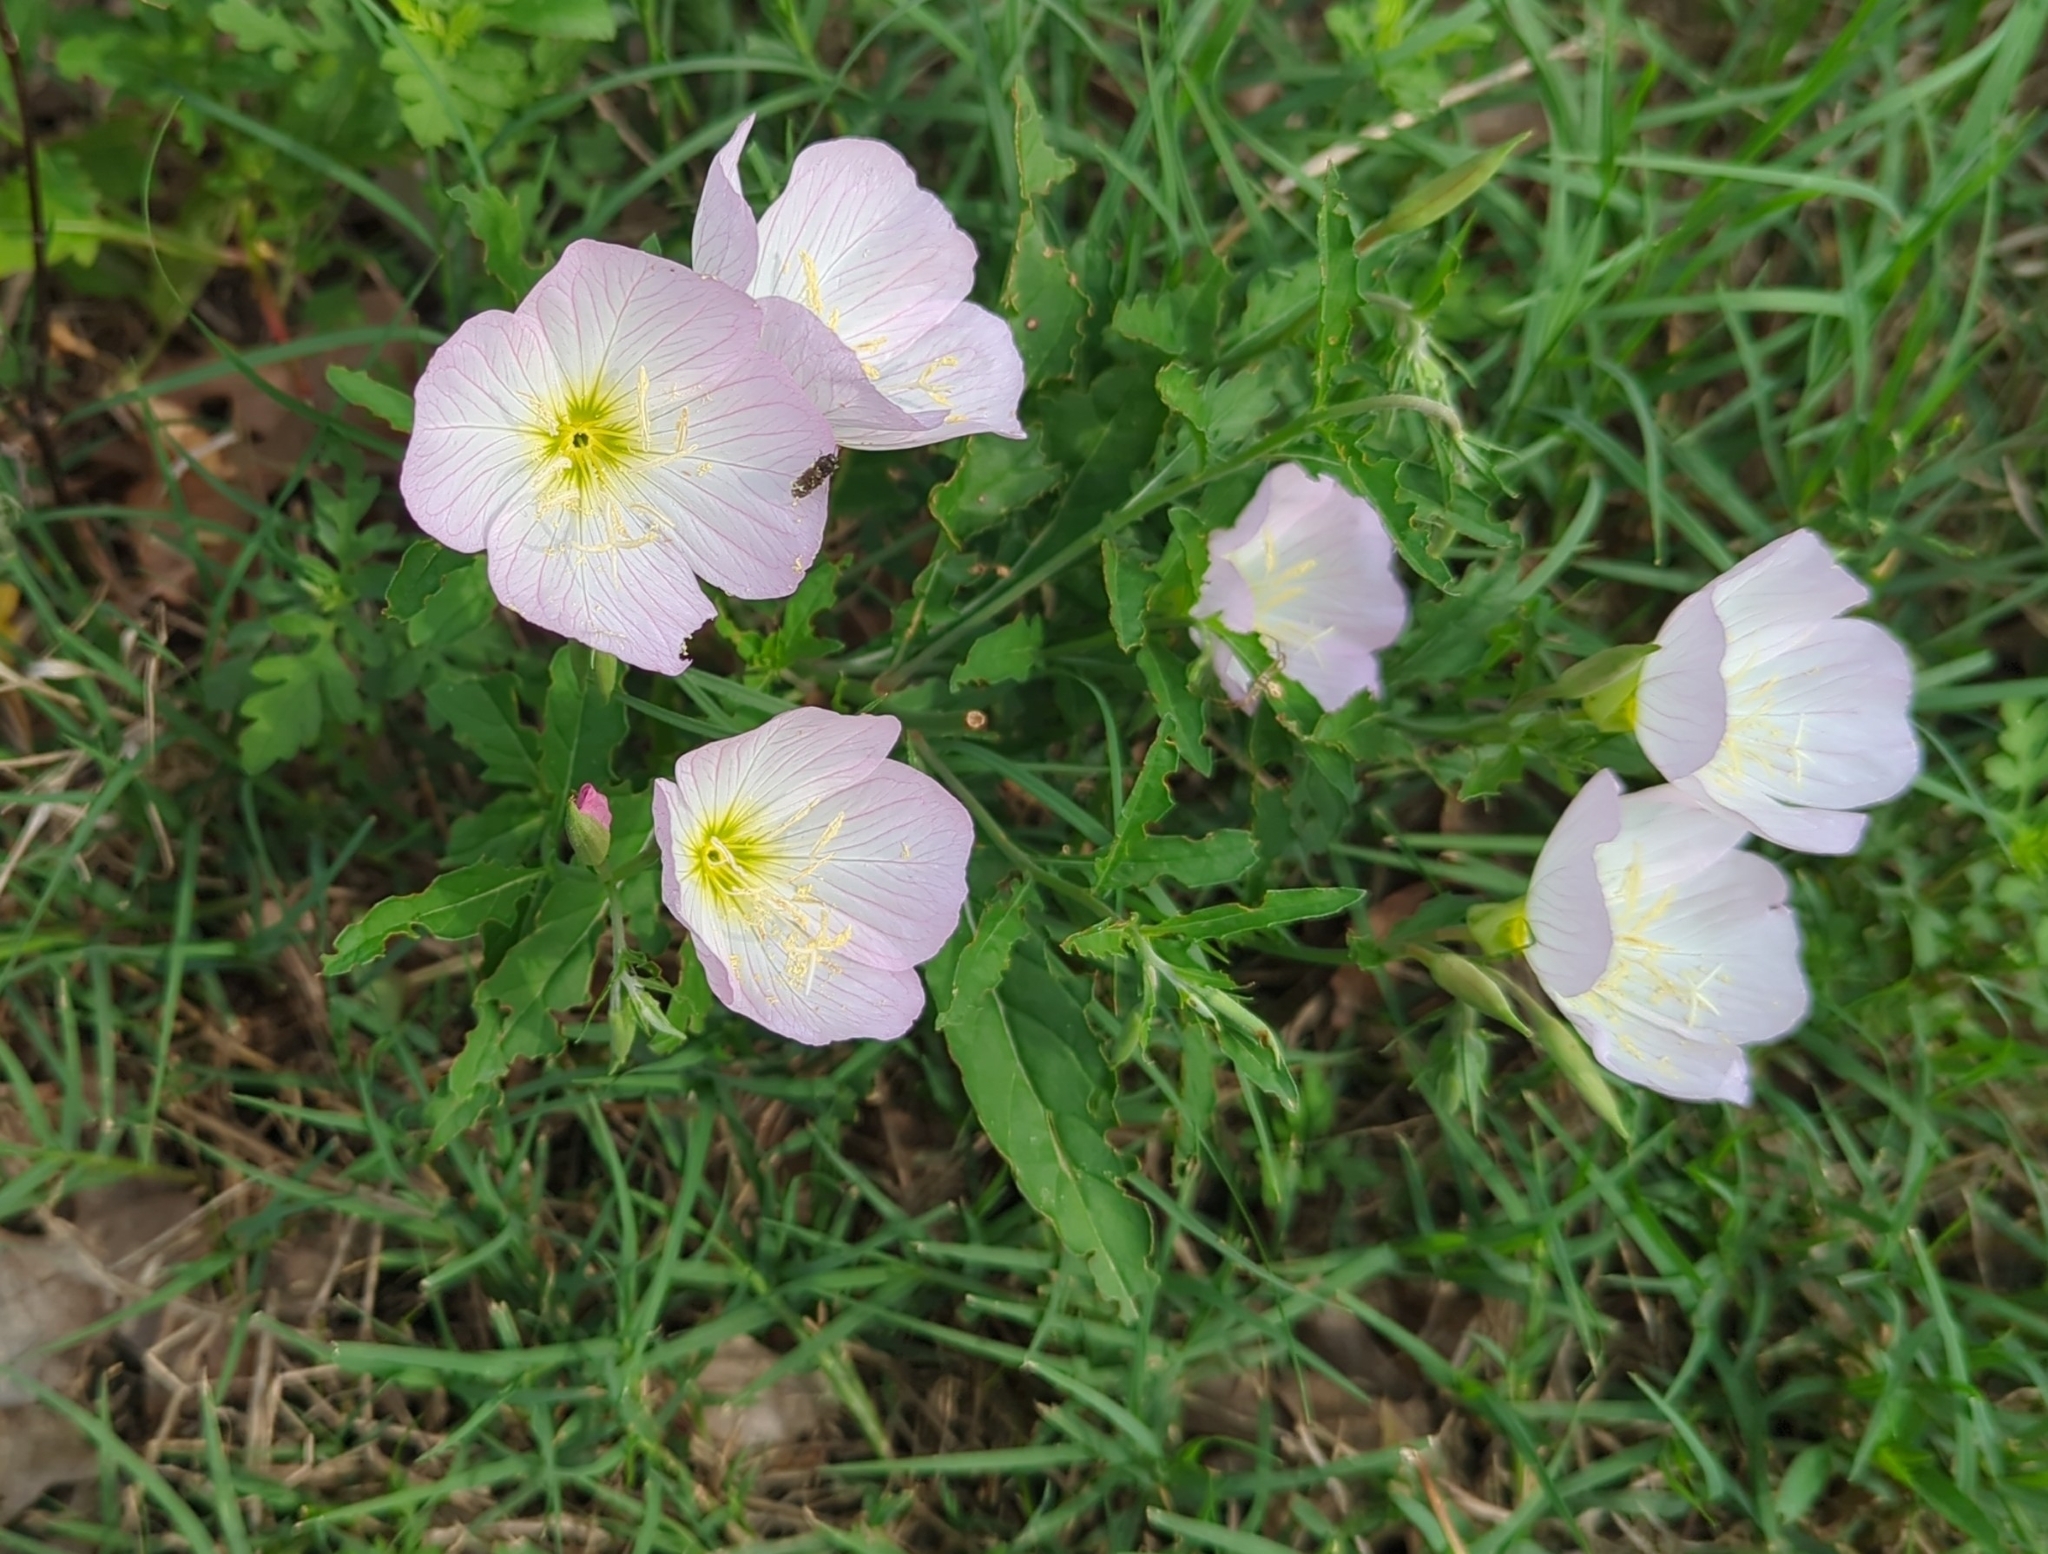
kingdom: Plantae
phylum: Tracheophyta
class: Magnoliopsida
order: Myrtales
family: Onagraceae
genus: Oenothera
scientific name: Oenothera speciosa
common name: White evening-primrose
